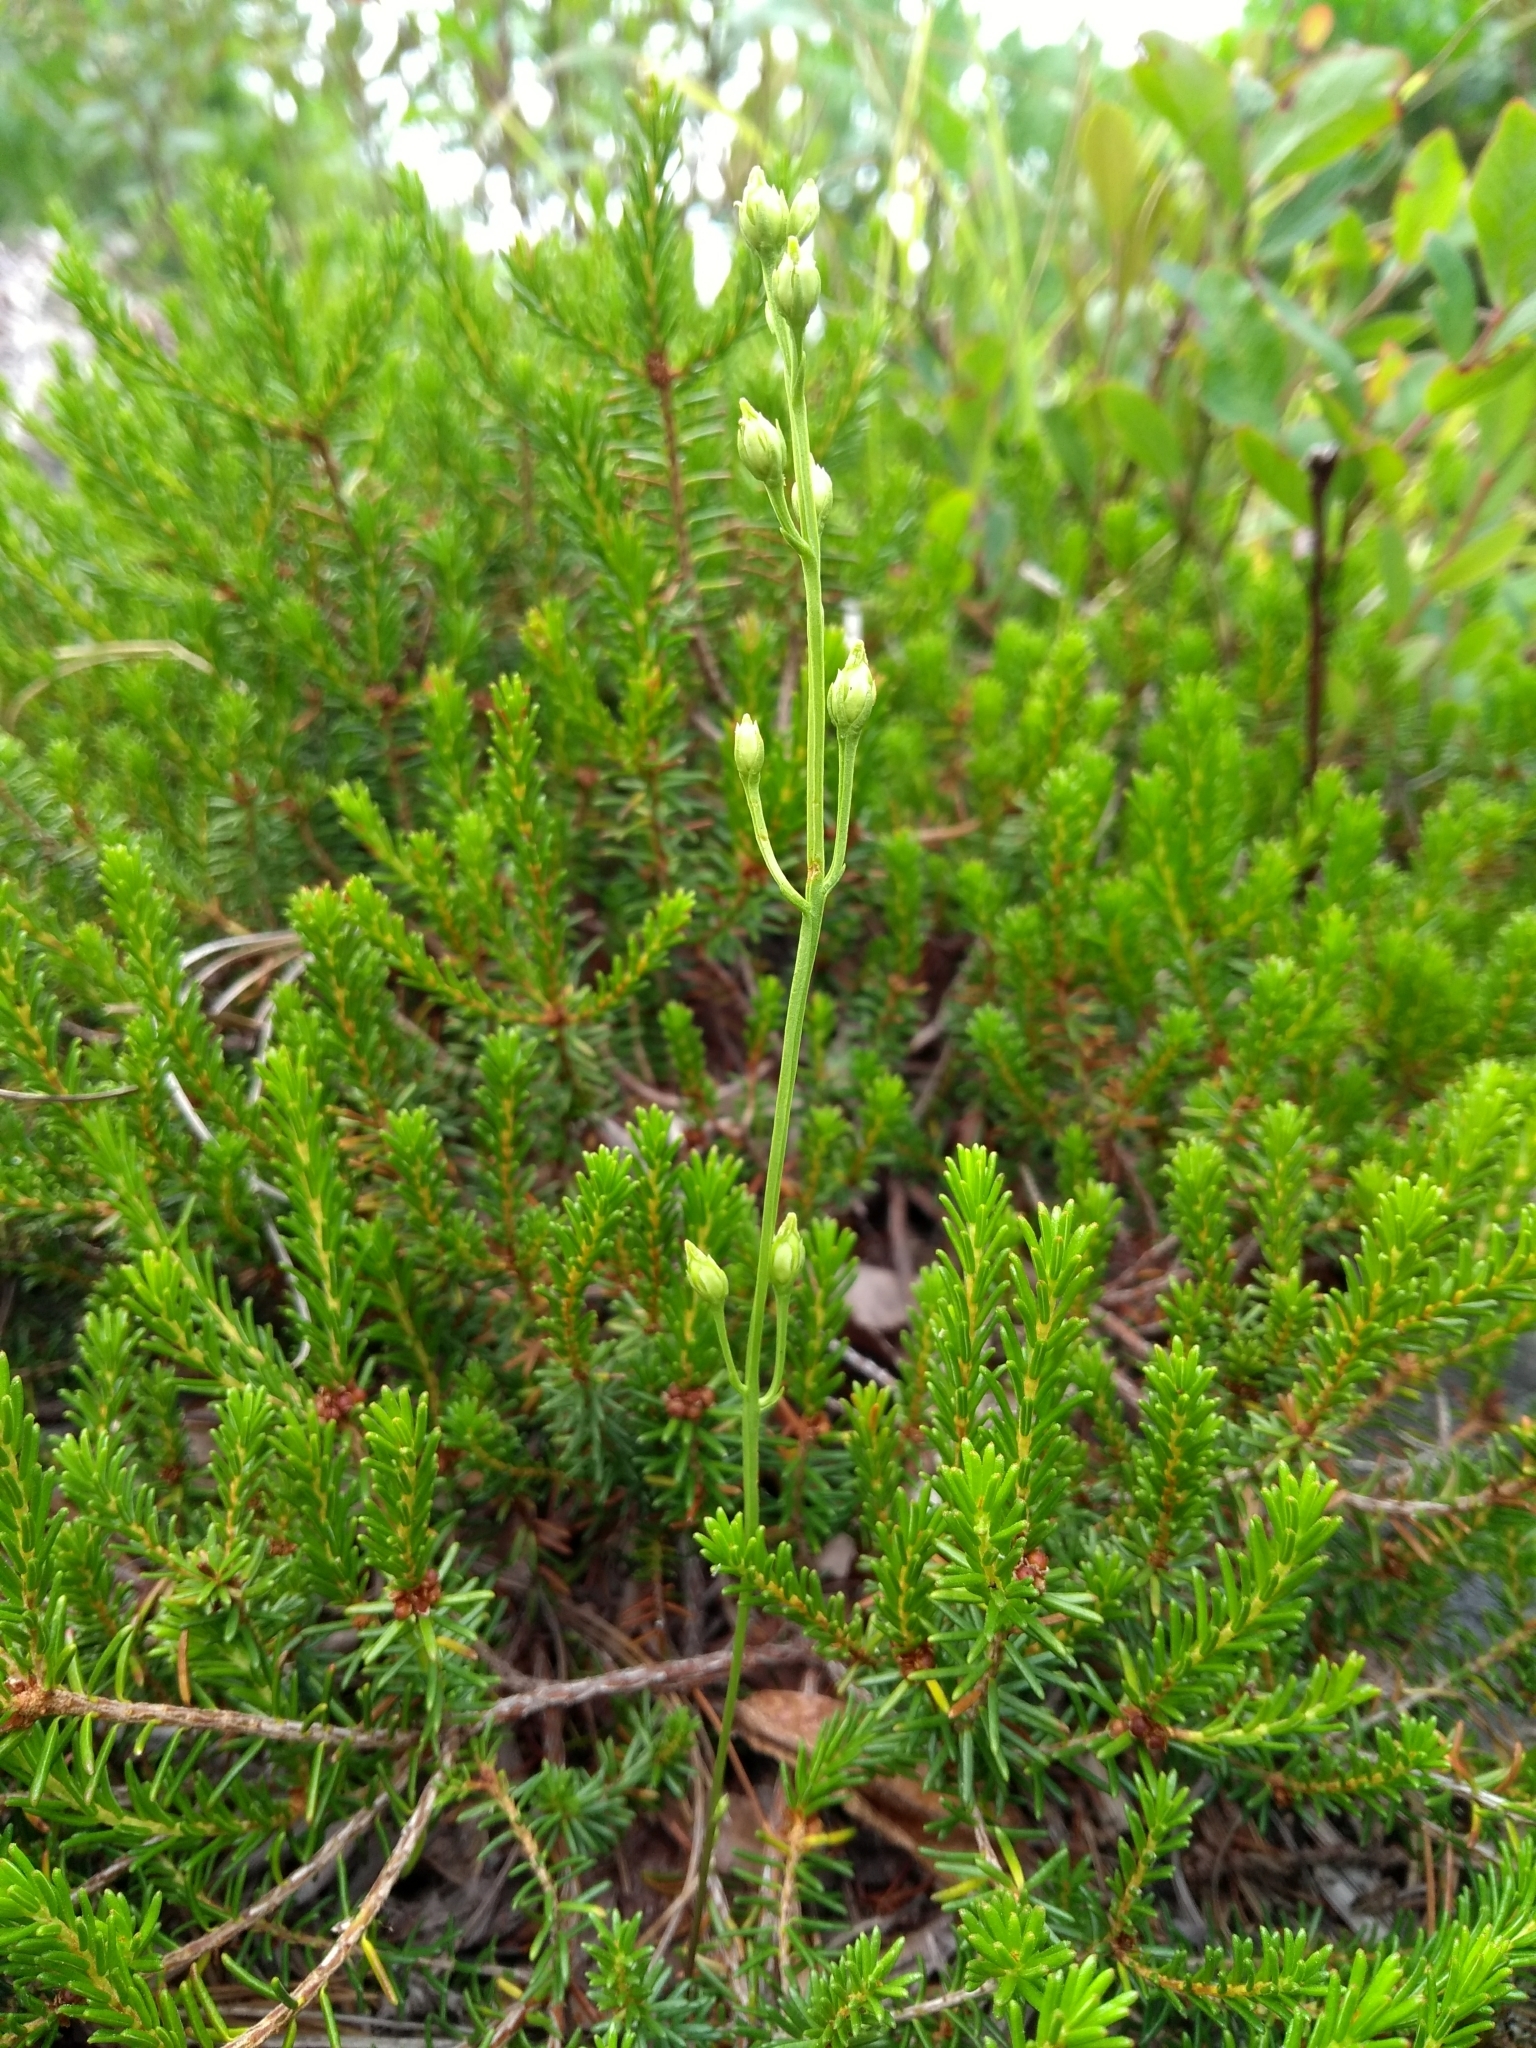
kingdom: Plantae
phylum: Tracheophyta
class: Magnoliopsida
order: Gentianales
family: Gentianaceae
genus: Bartonia
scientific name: Bartonia virginica
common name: Yellow bartonia
